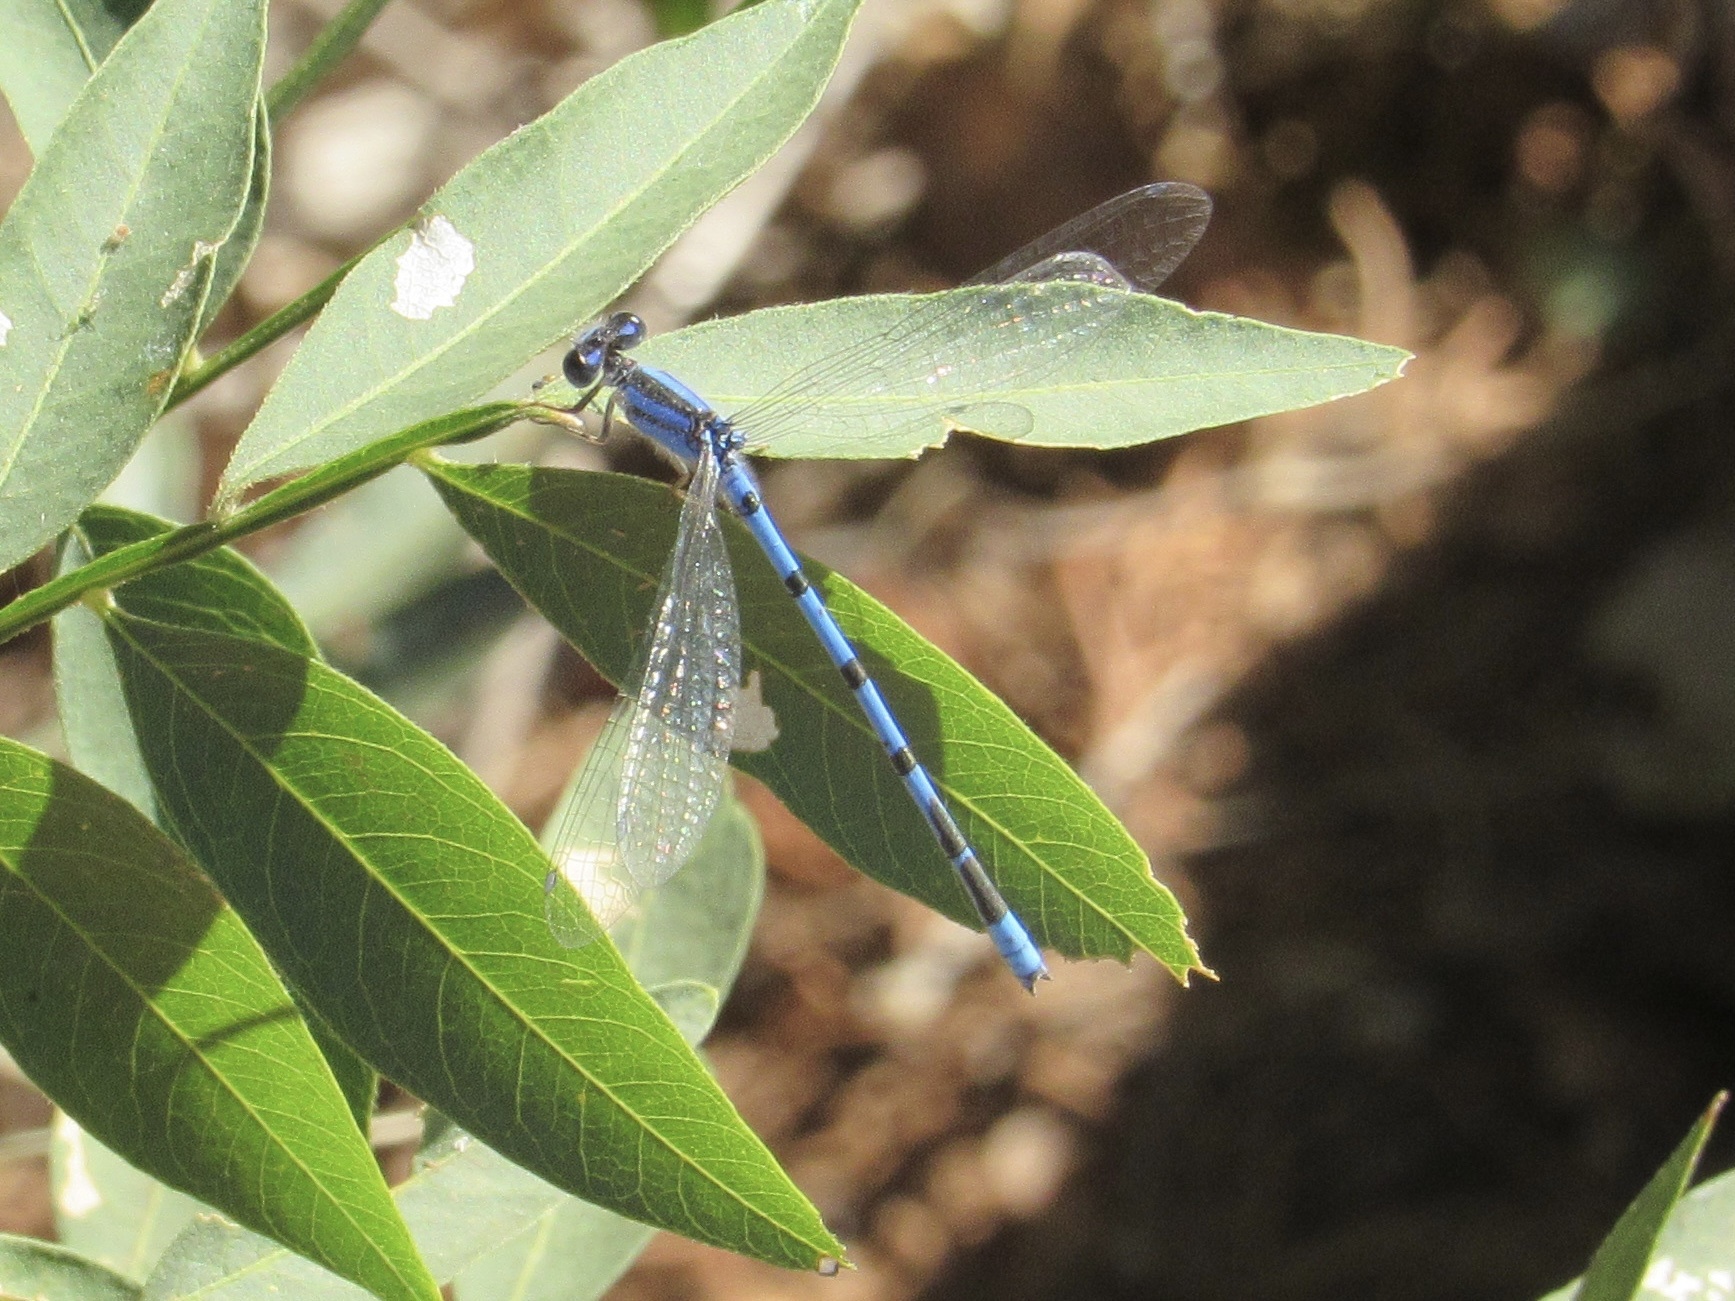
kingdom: Animalia
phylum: Arthropoda
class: Insecta
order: Odonata
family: Coenagrionidae
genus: Enallagma
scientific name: Enallagma civile
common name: Damselfly
